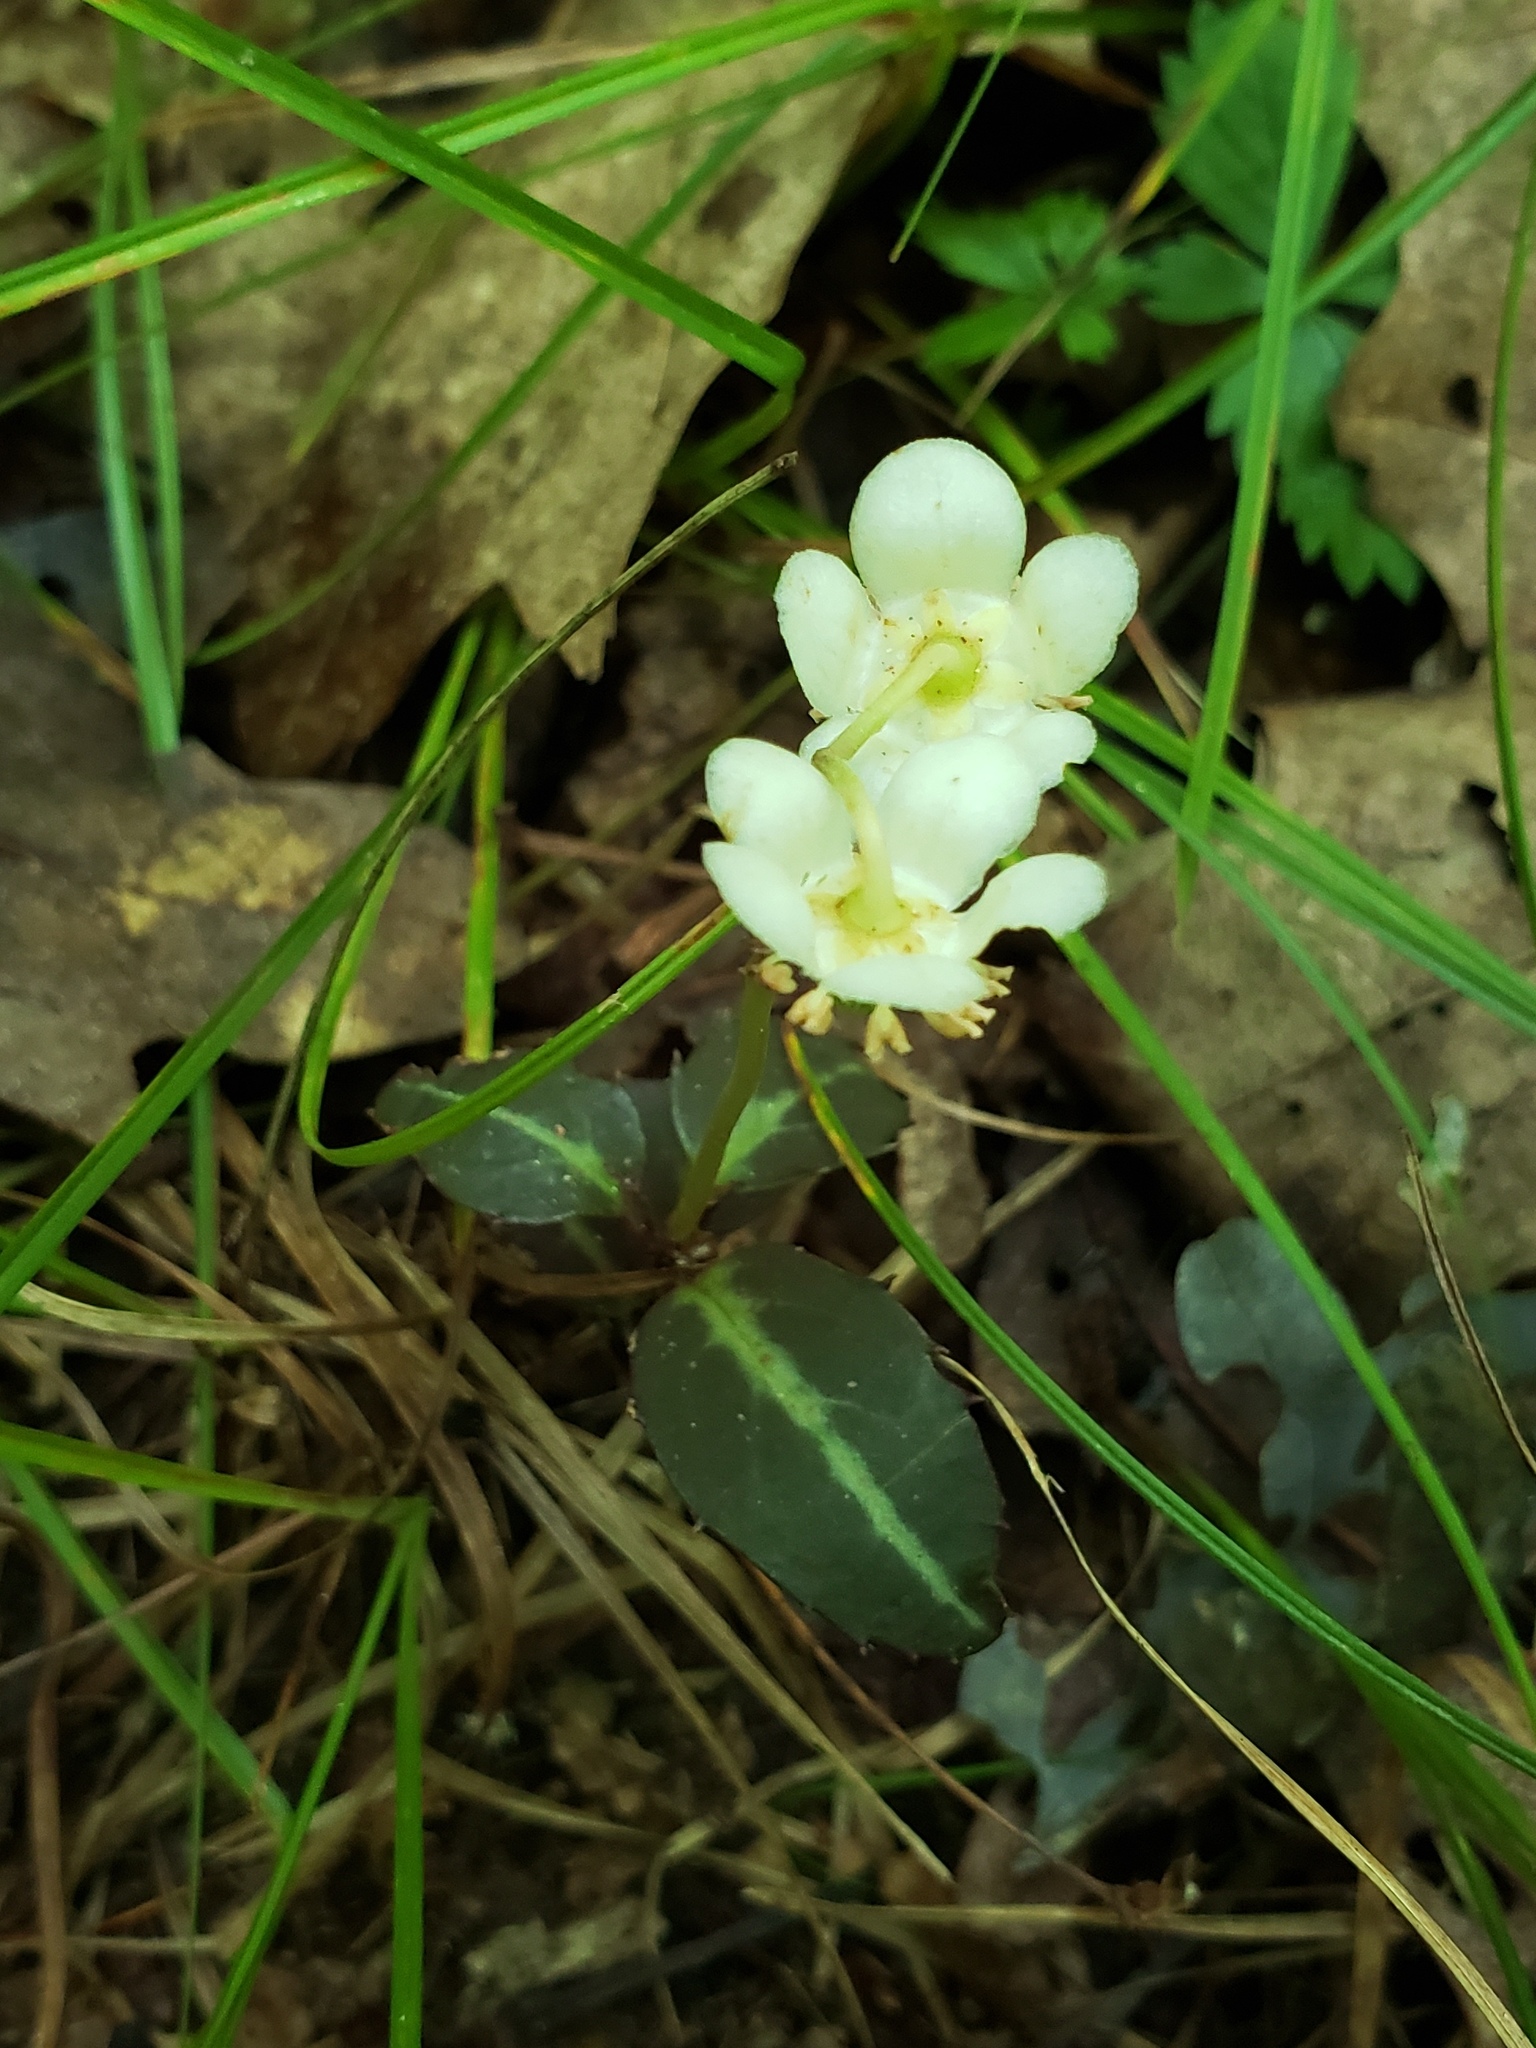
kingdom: Plantae
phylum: Tracheophyta
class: Magnoliopsida
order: Ericales
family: Ericaceae
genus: Chimaphila
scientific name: Chimaphila maculata
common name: Spotted pipsissewa
